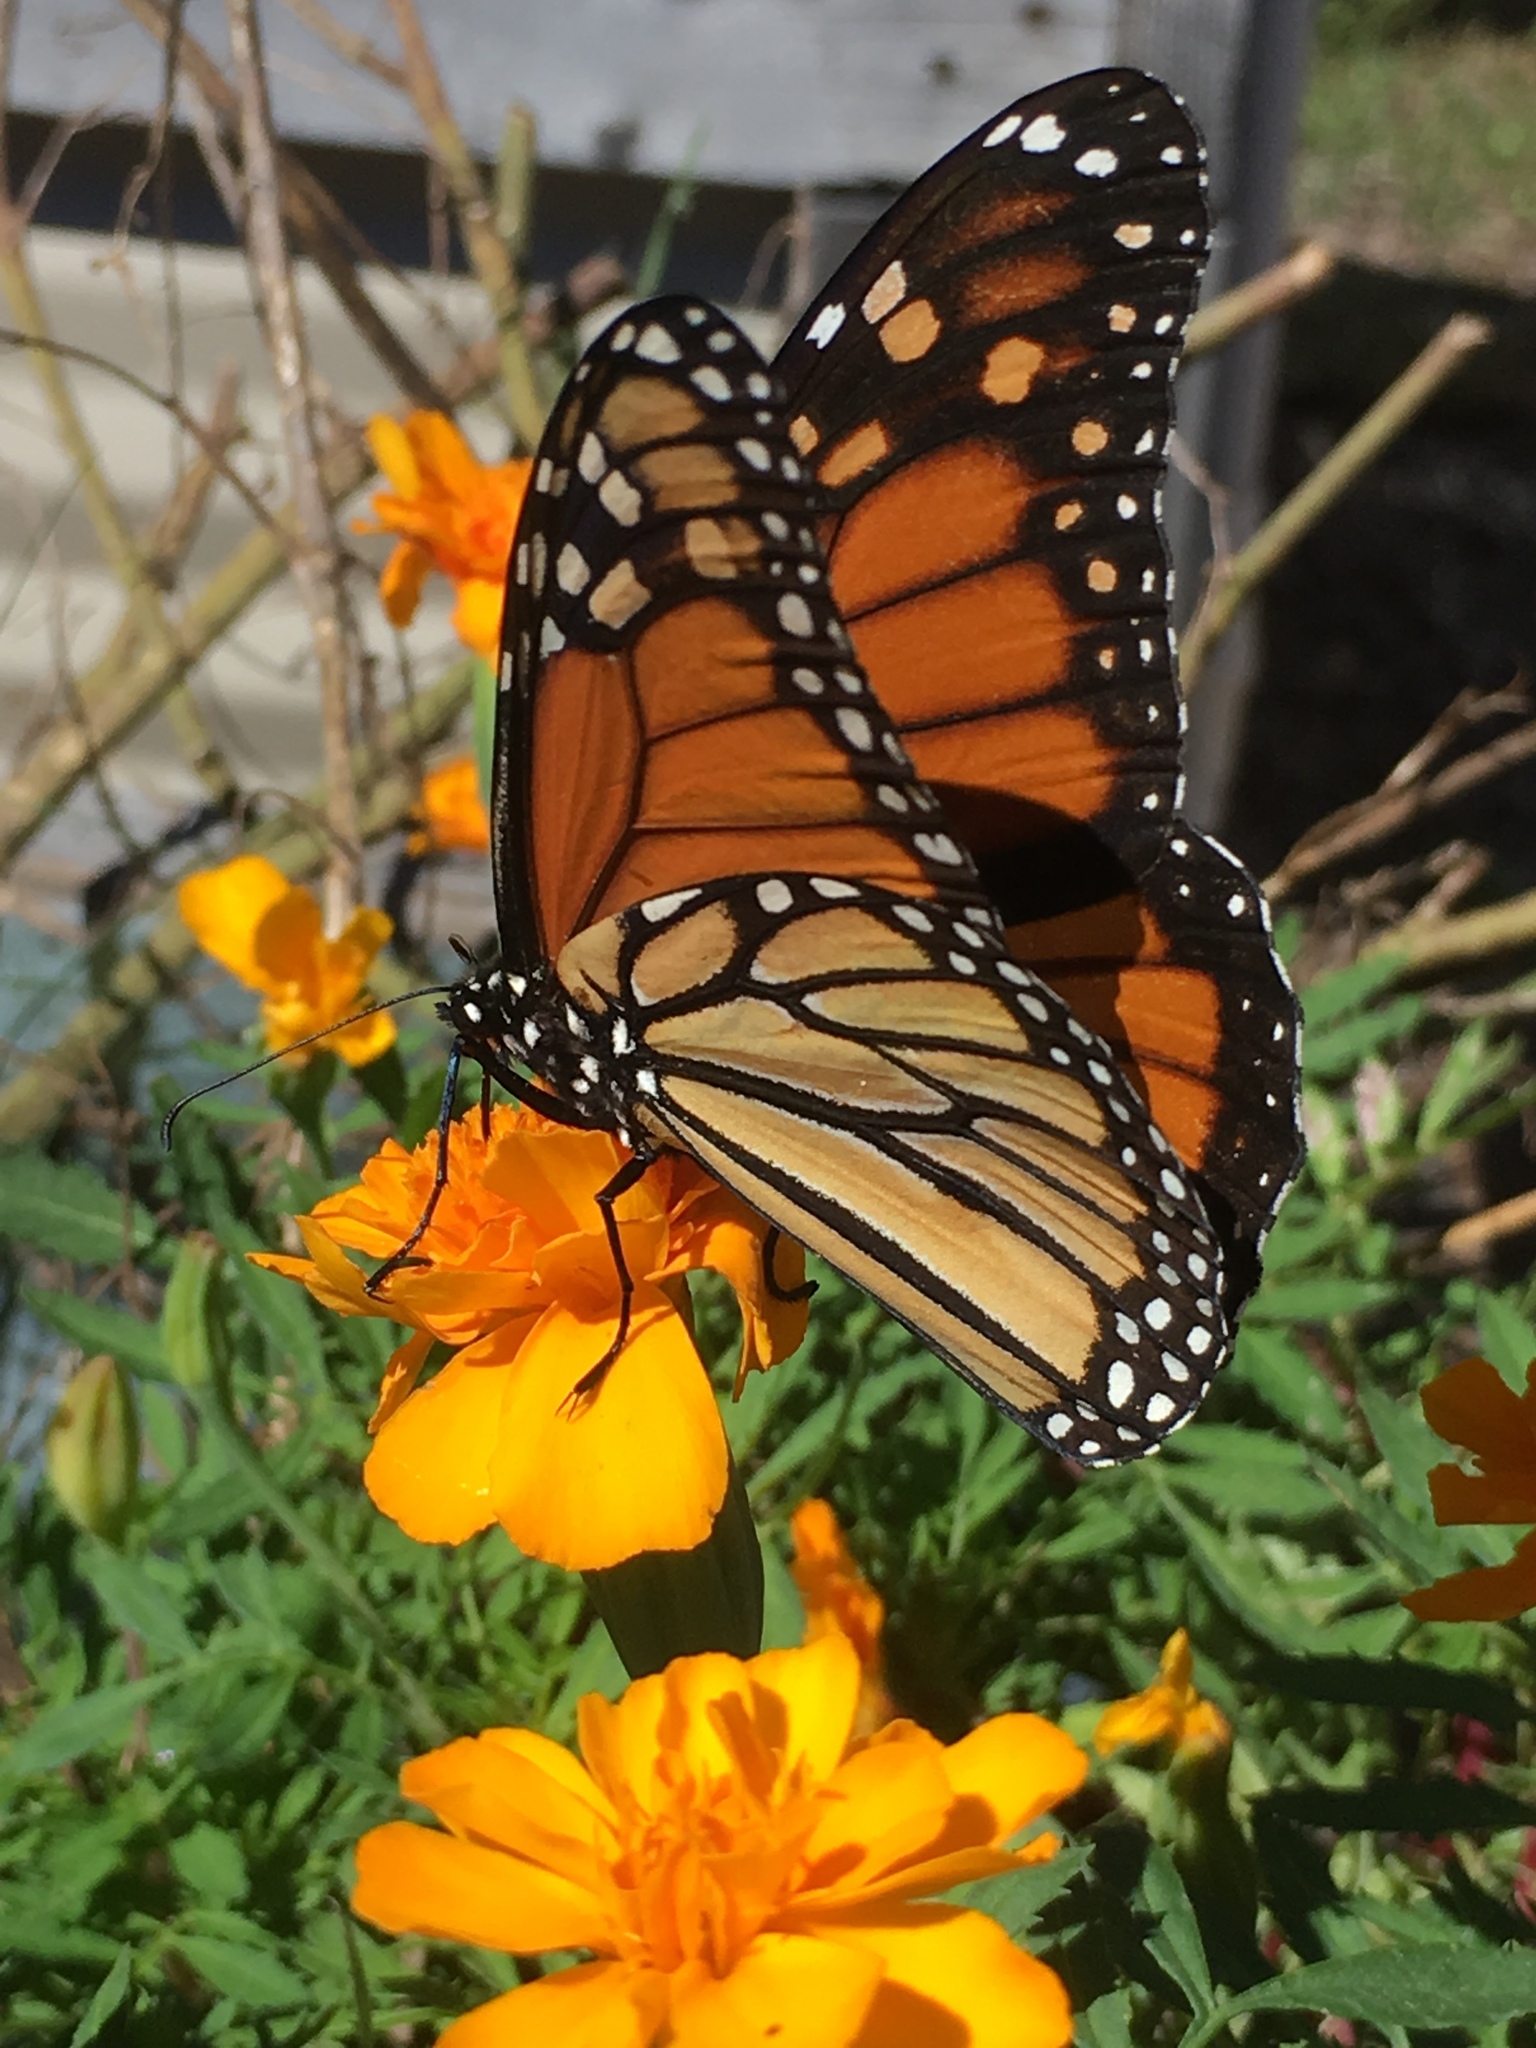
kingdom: Animalia
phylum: Arthropoda
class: Insecta
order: Lepidoptera
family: Nymphalidae
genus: Danaus
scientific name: Danaus plexippus
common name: Monarch
